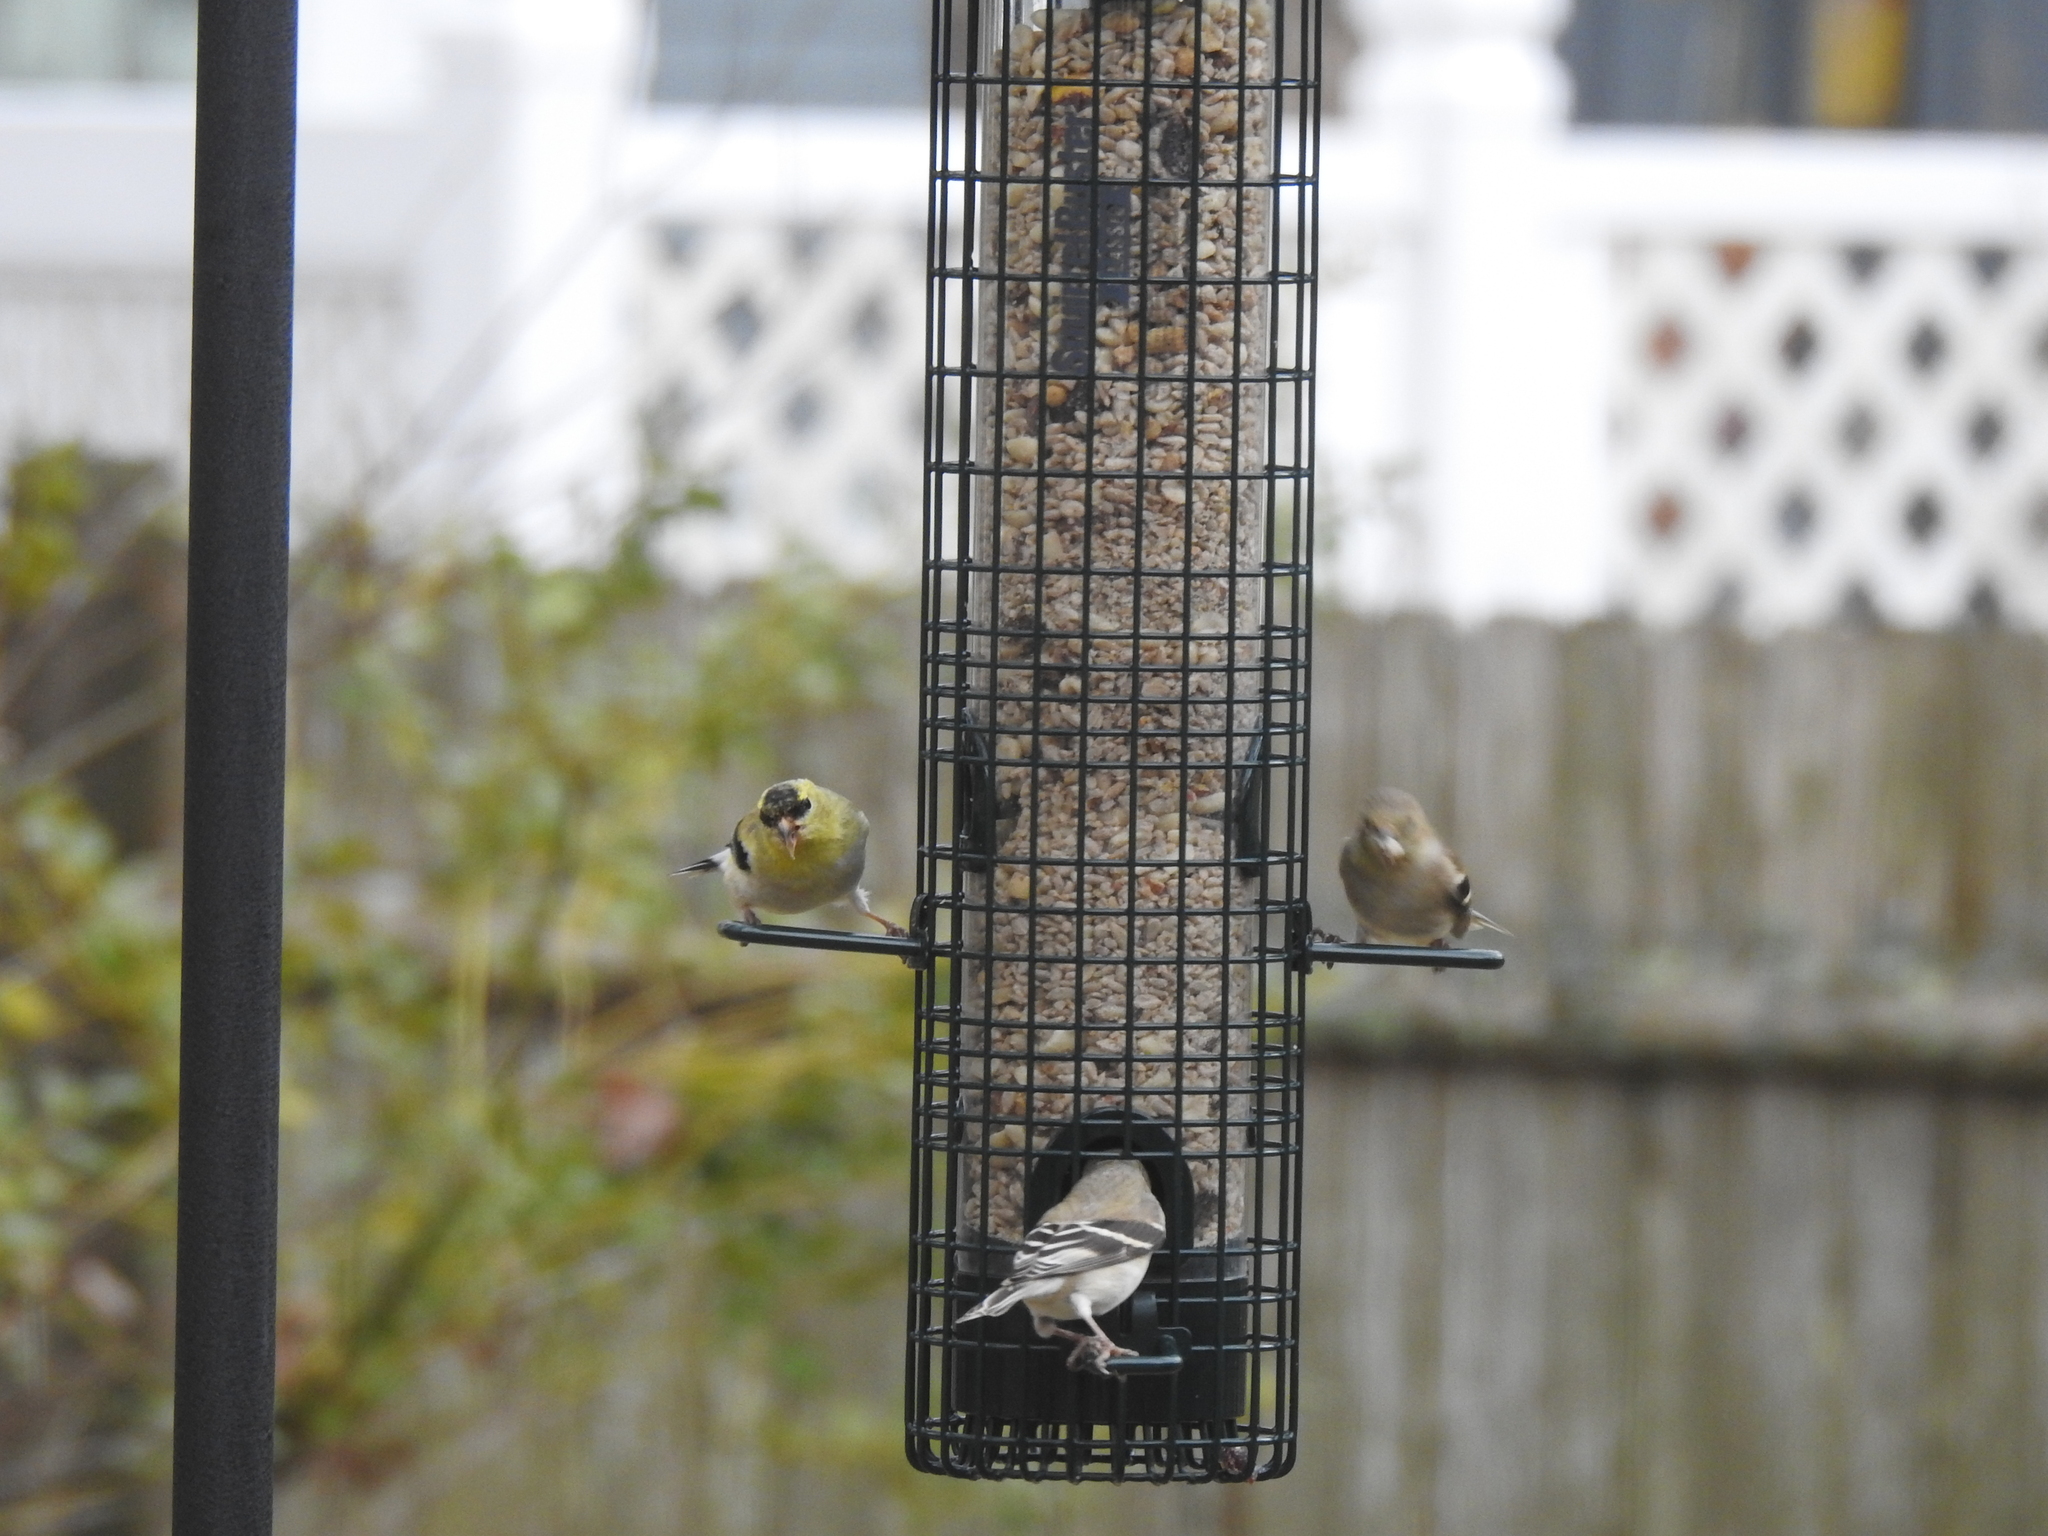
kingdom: Animalia
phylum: Chordata
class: Aves
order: Passeriformes
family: Fringillidae
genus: Spinus
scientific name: Spinus tristis
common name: American goldfinch
